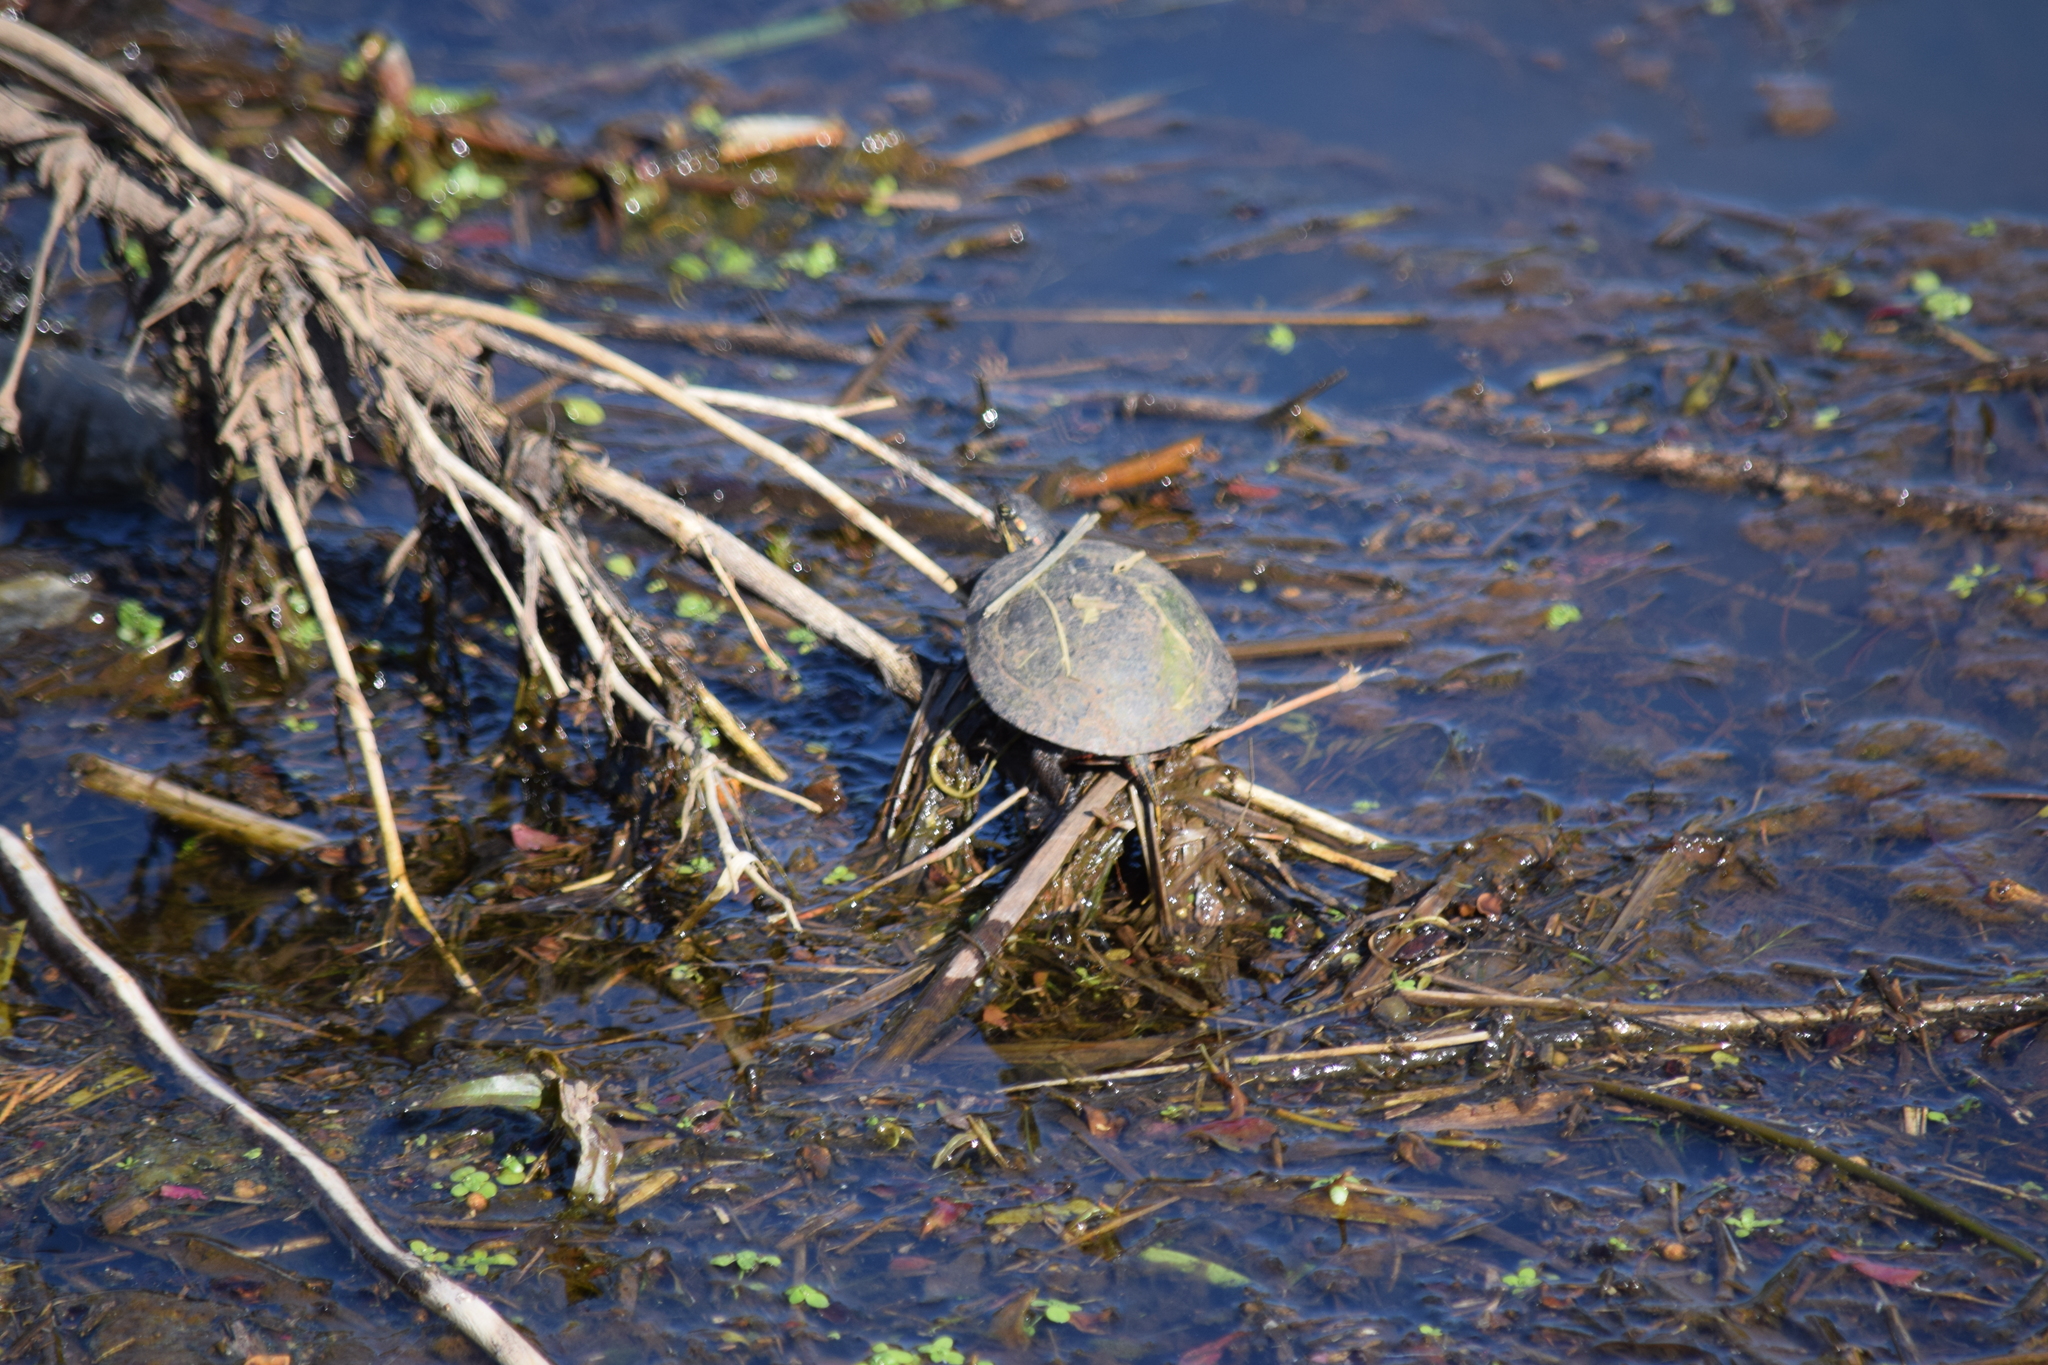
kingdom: Animalia
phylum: Chordata
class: Testudines
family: Emydidae
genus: Chrysemys
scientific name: Chrysemys picta
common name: Painted turtle
